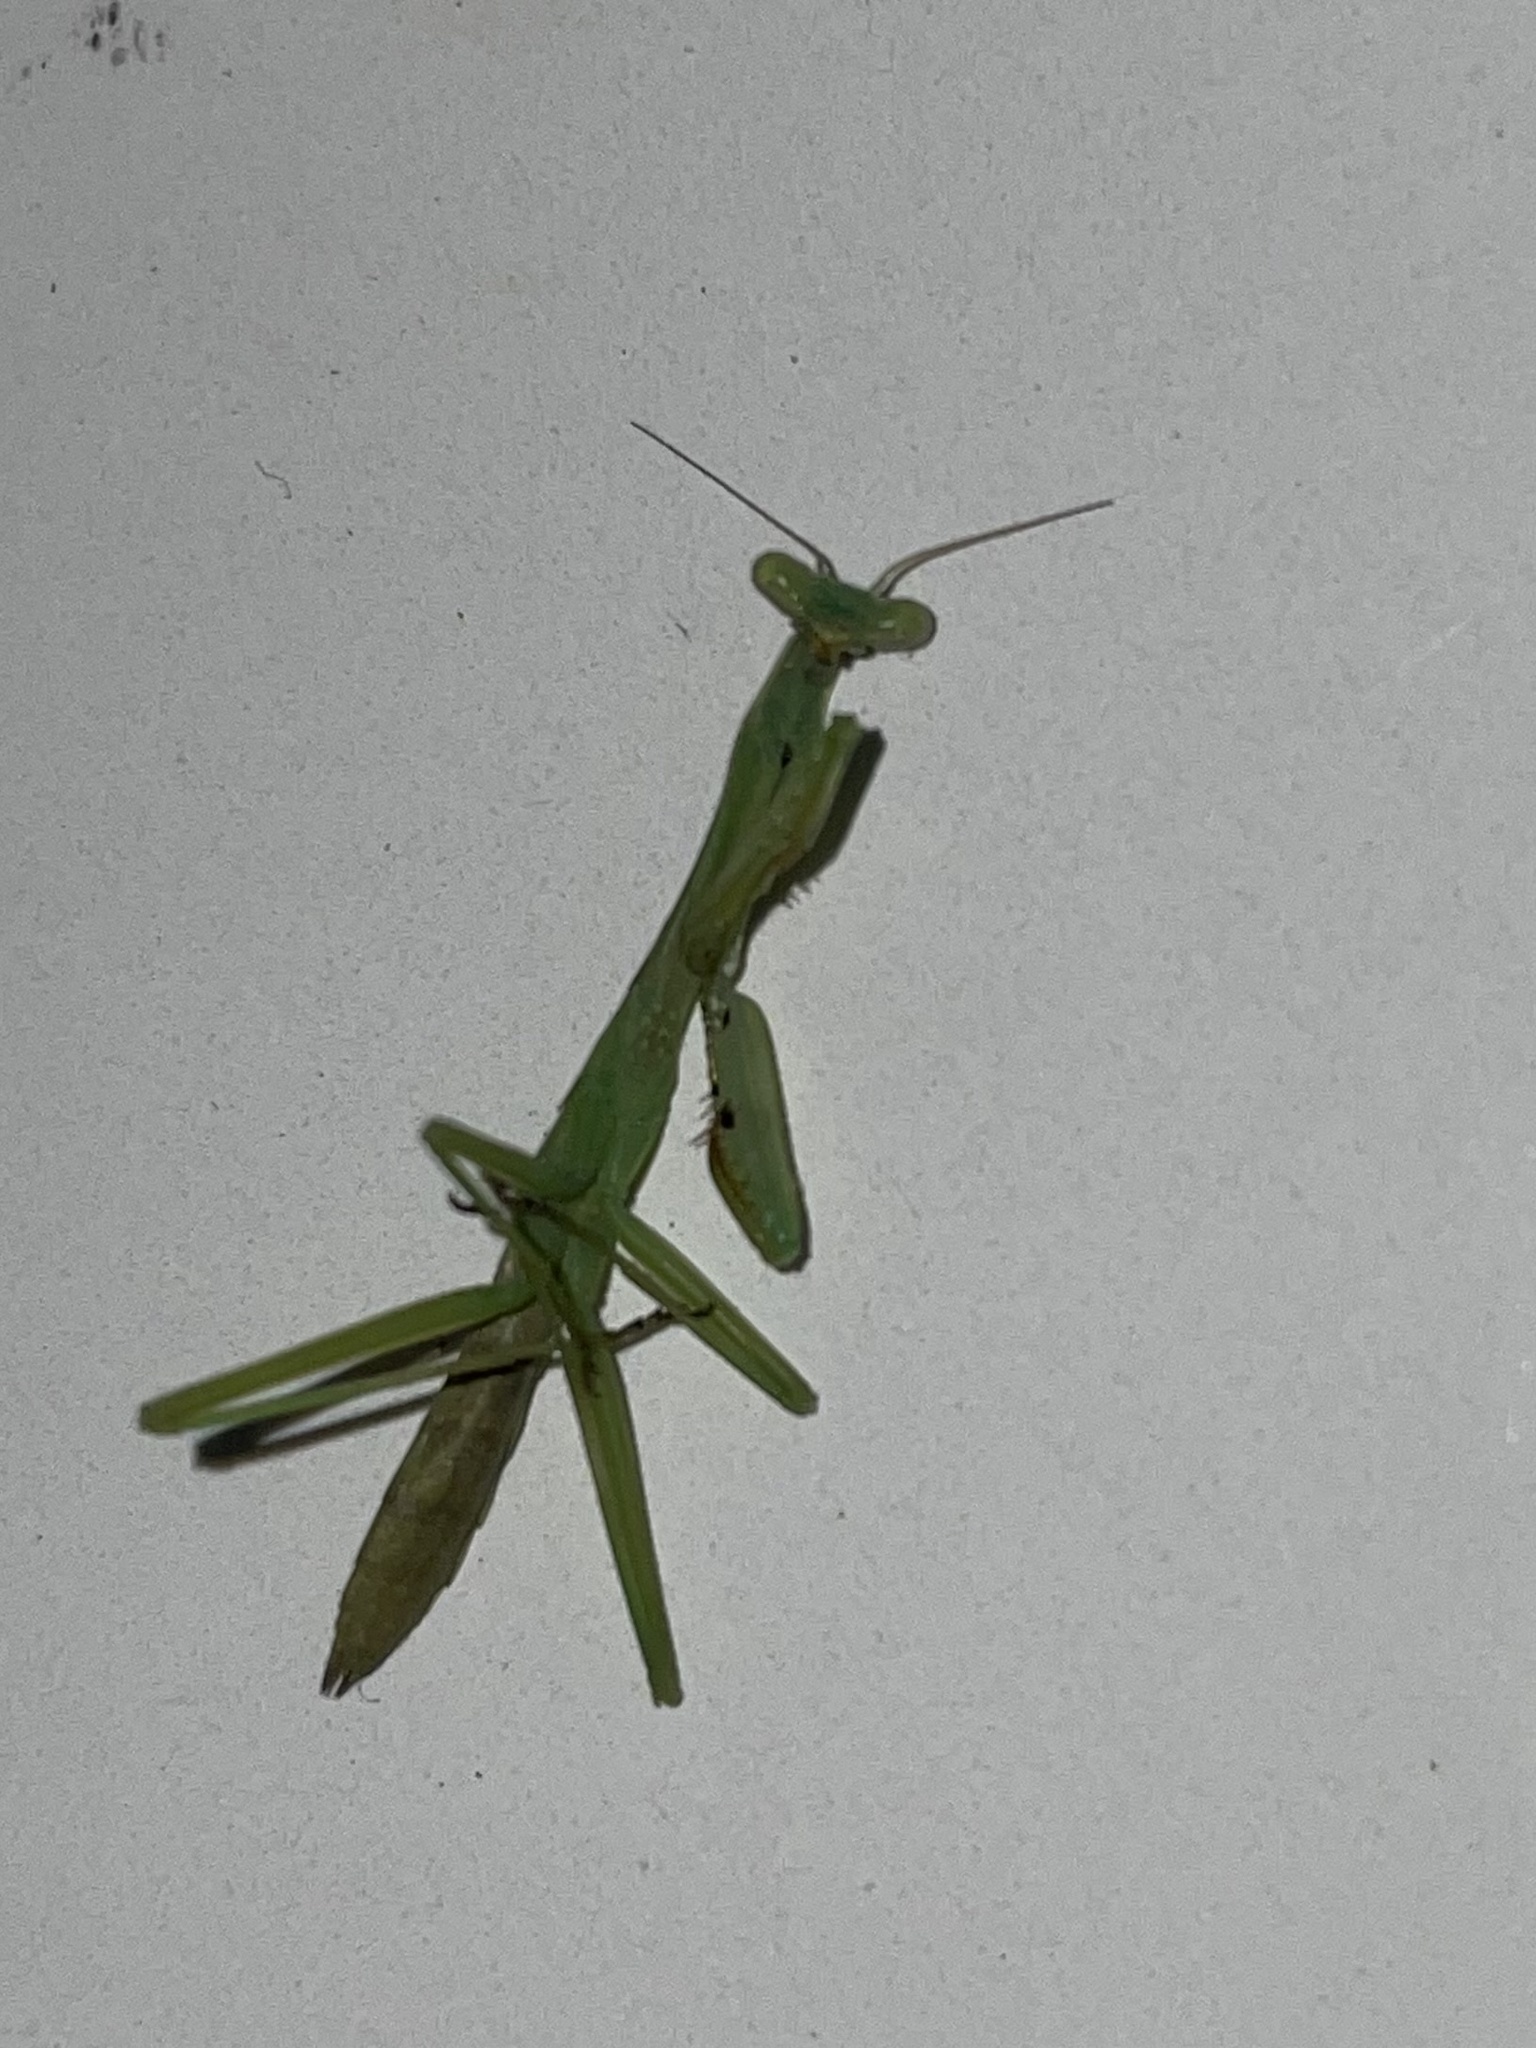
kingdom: Animalia
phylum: Arthropoda
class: Insecta
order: Mantodea
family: Mantidae
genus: Stagmomantis
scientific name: Stagmomantis carolina
